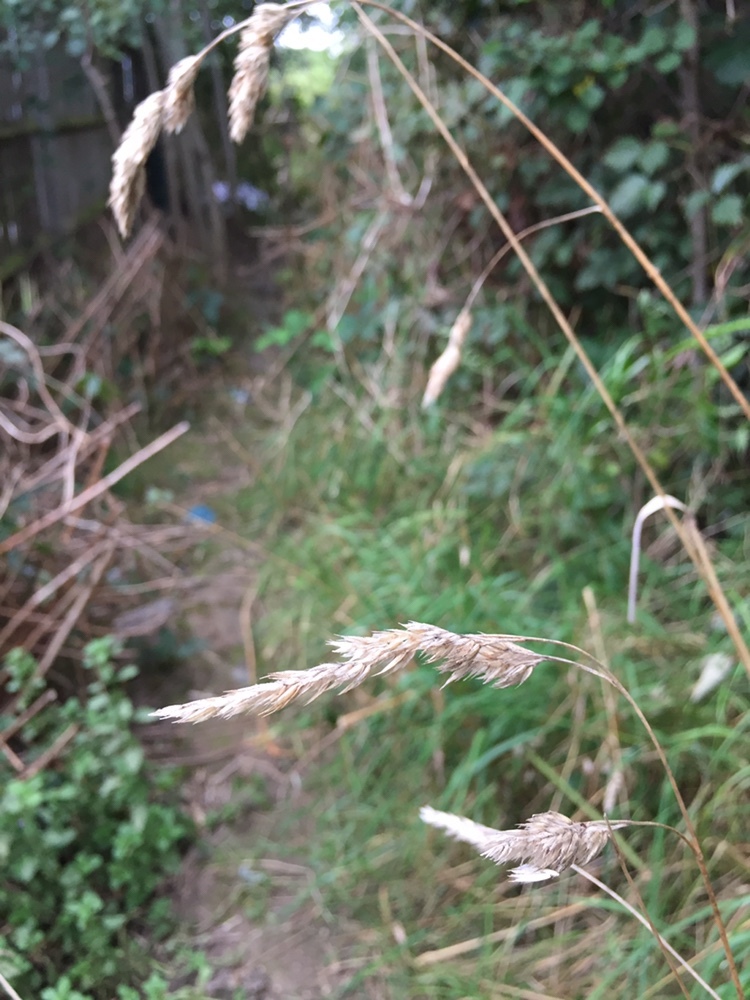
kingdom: Plantae
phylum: Tracheophyta
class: Liliopsida
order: Poales
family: Poaceae
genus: Dactylis
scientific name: Dactylis glomerata
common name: Orchardgrass
